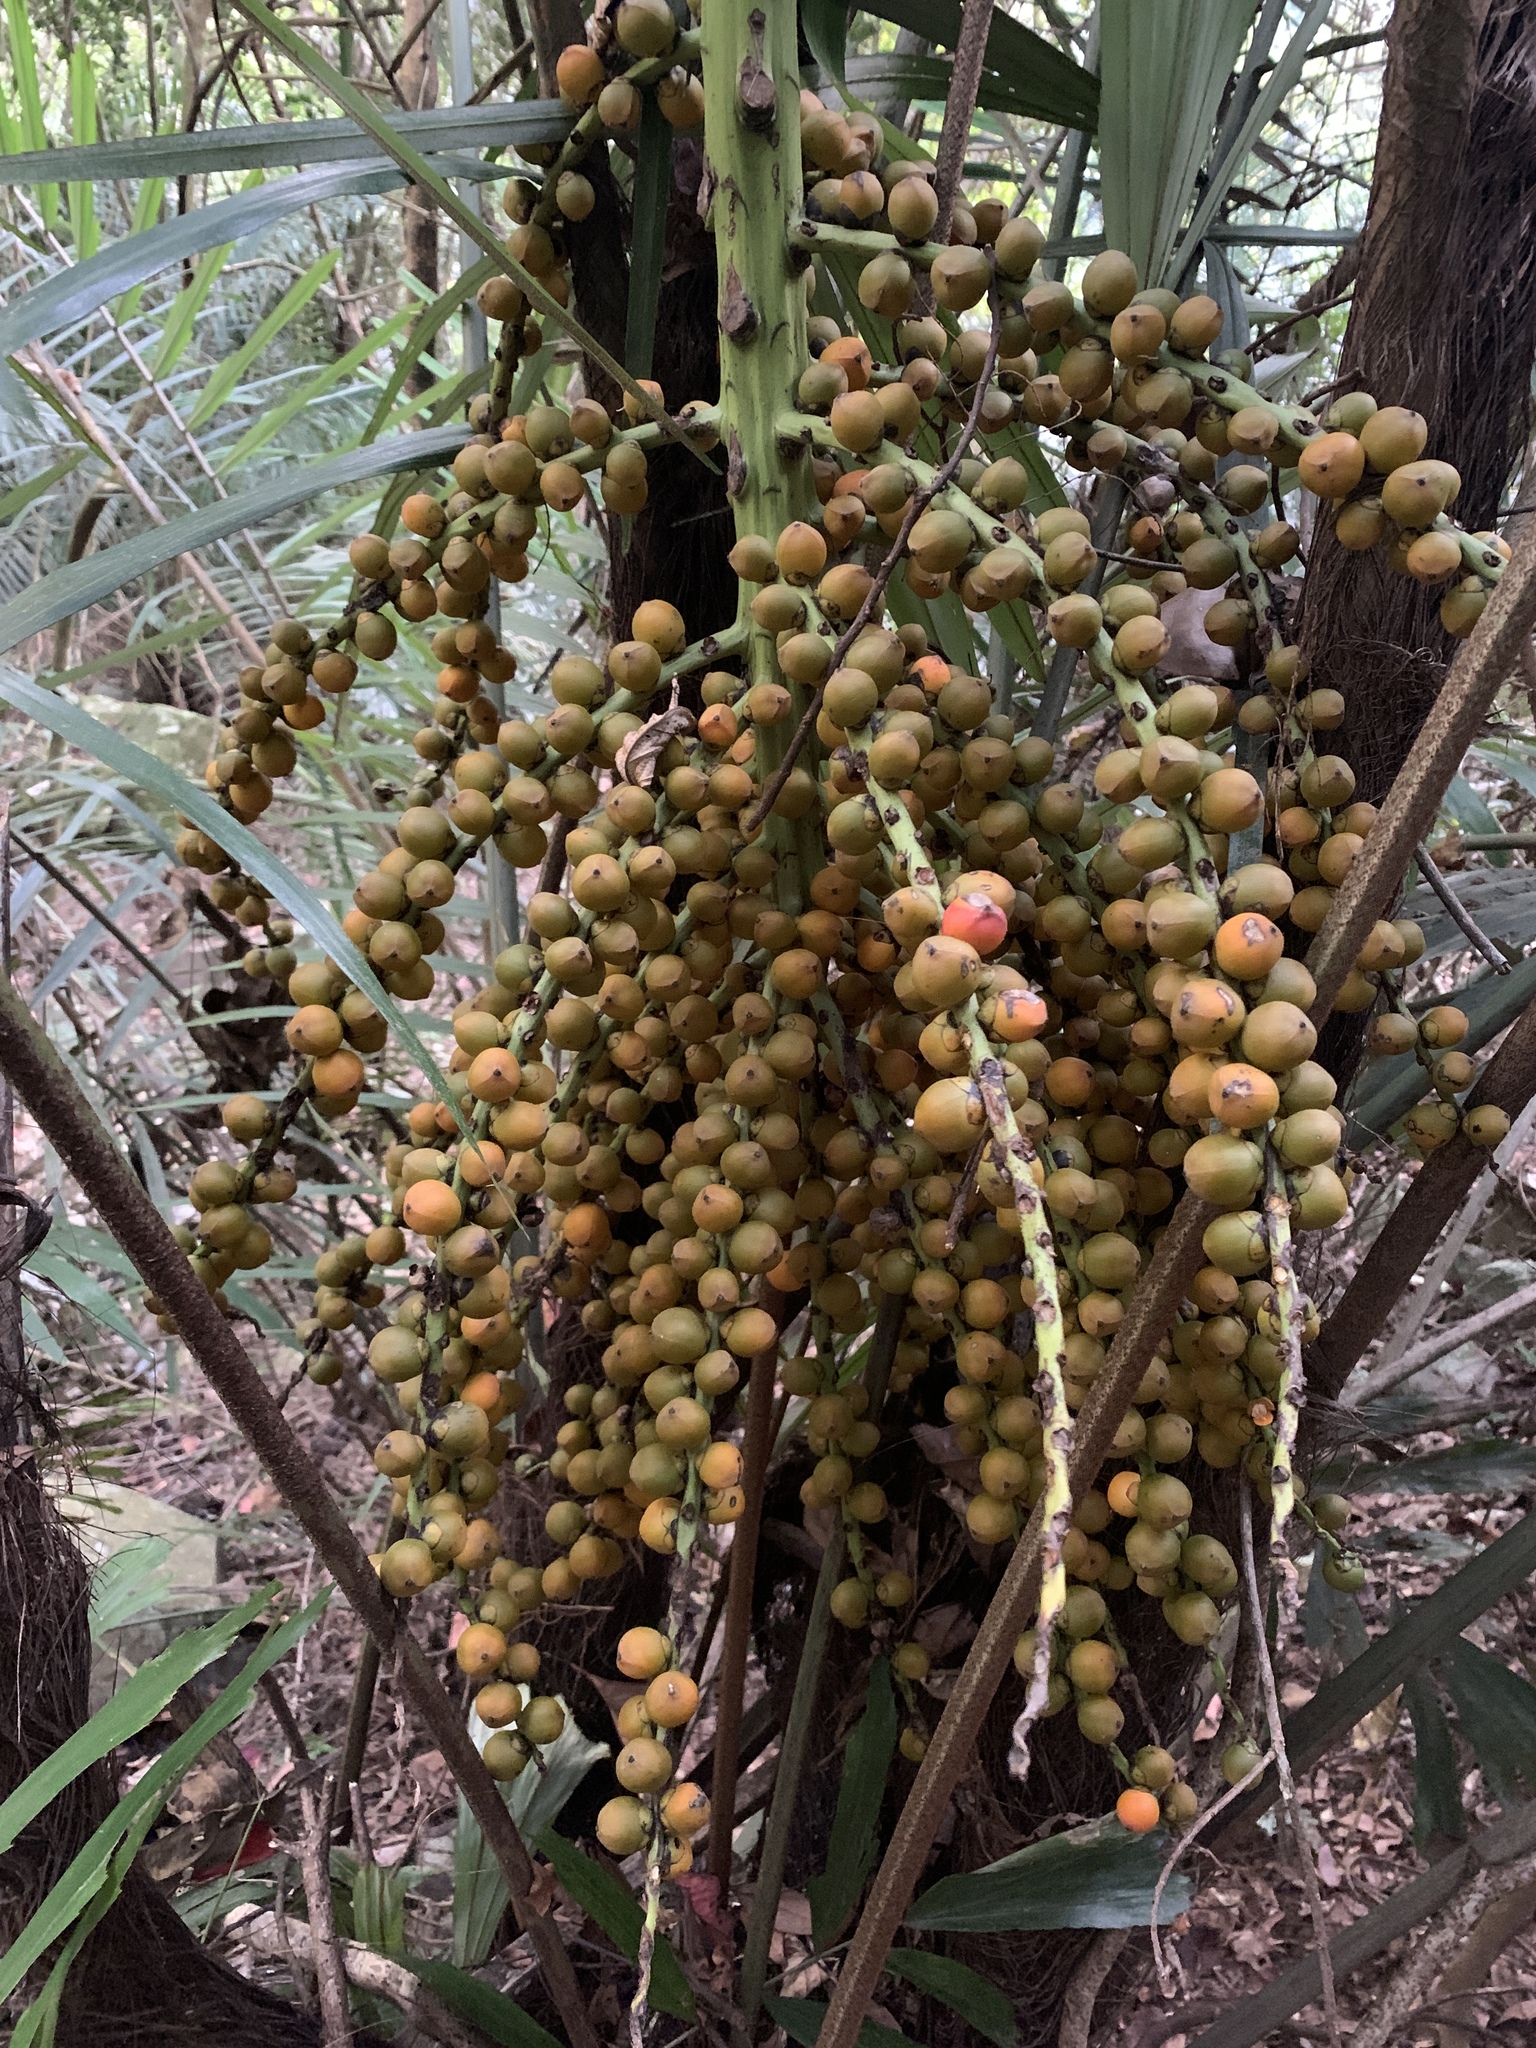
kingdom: Plantae
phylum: Tracheophyta
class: Liliopsida
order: Arecales
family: Arecaceae
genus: Arenga
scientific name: Arenga engleri
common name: Formosan sugar palm
